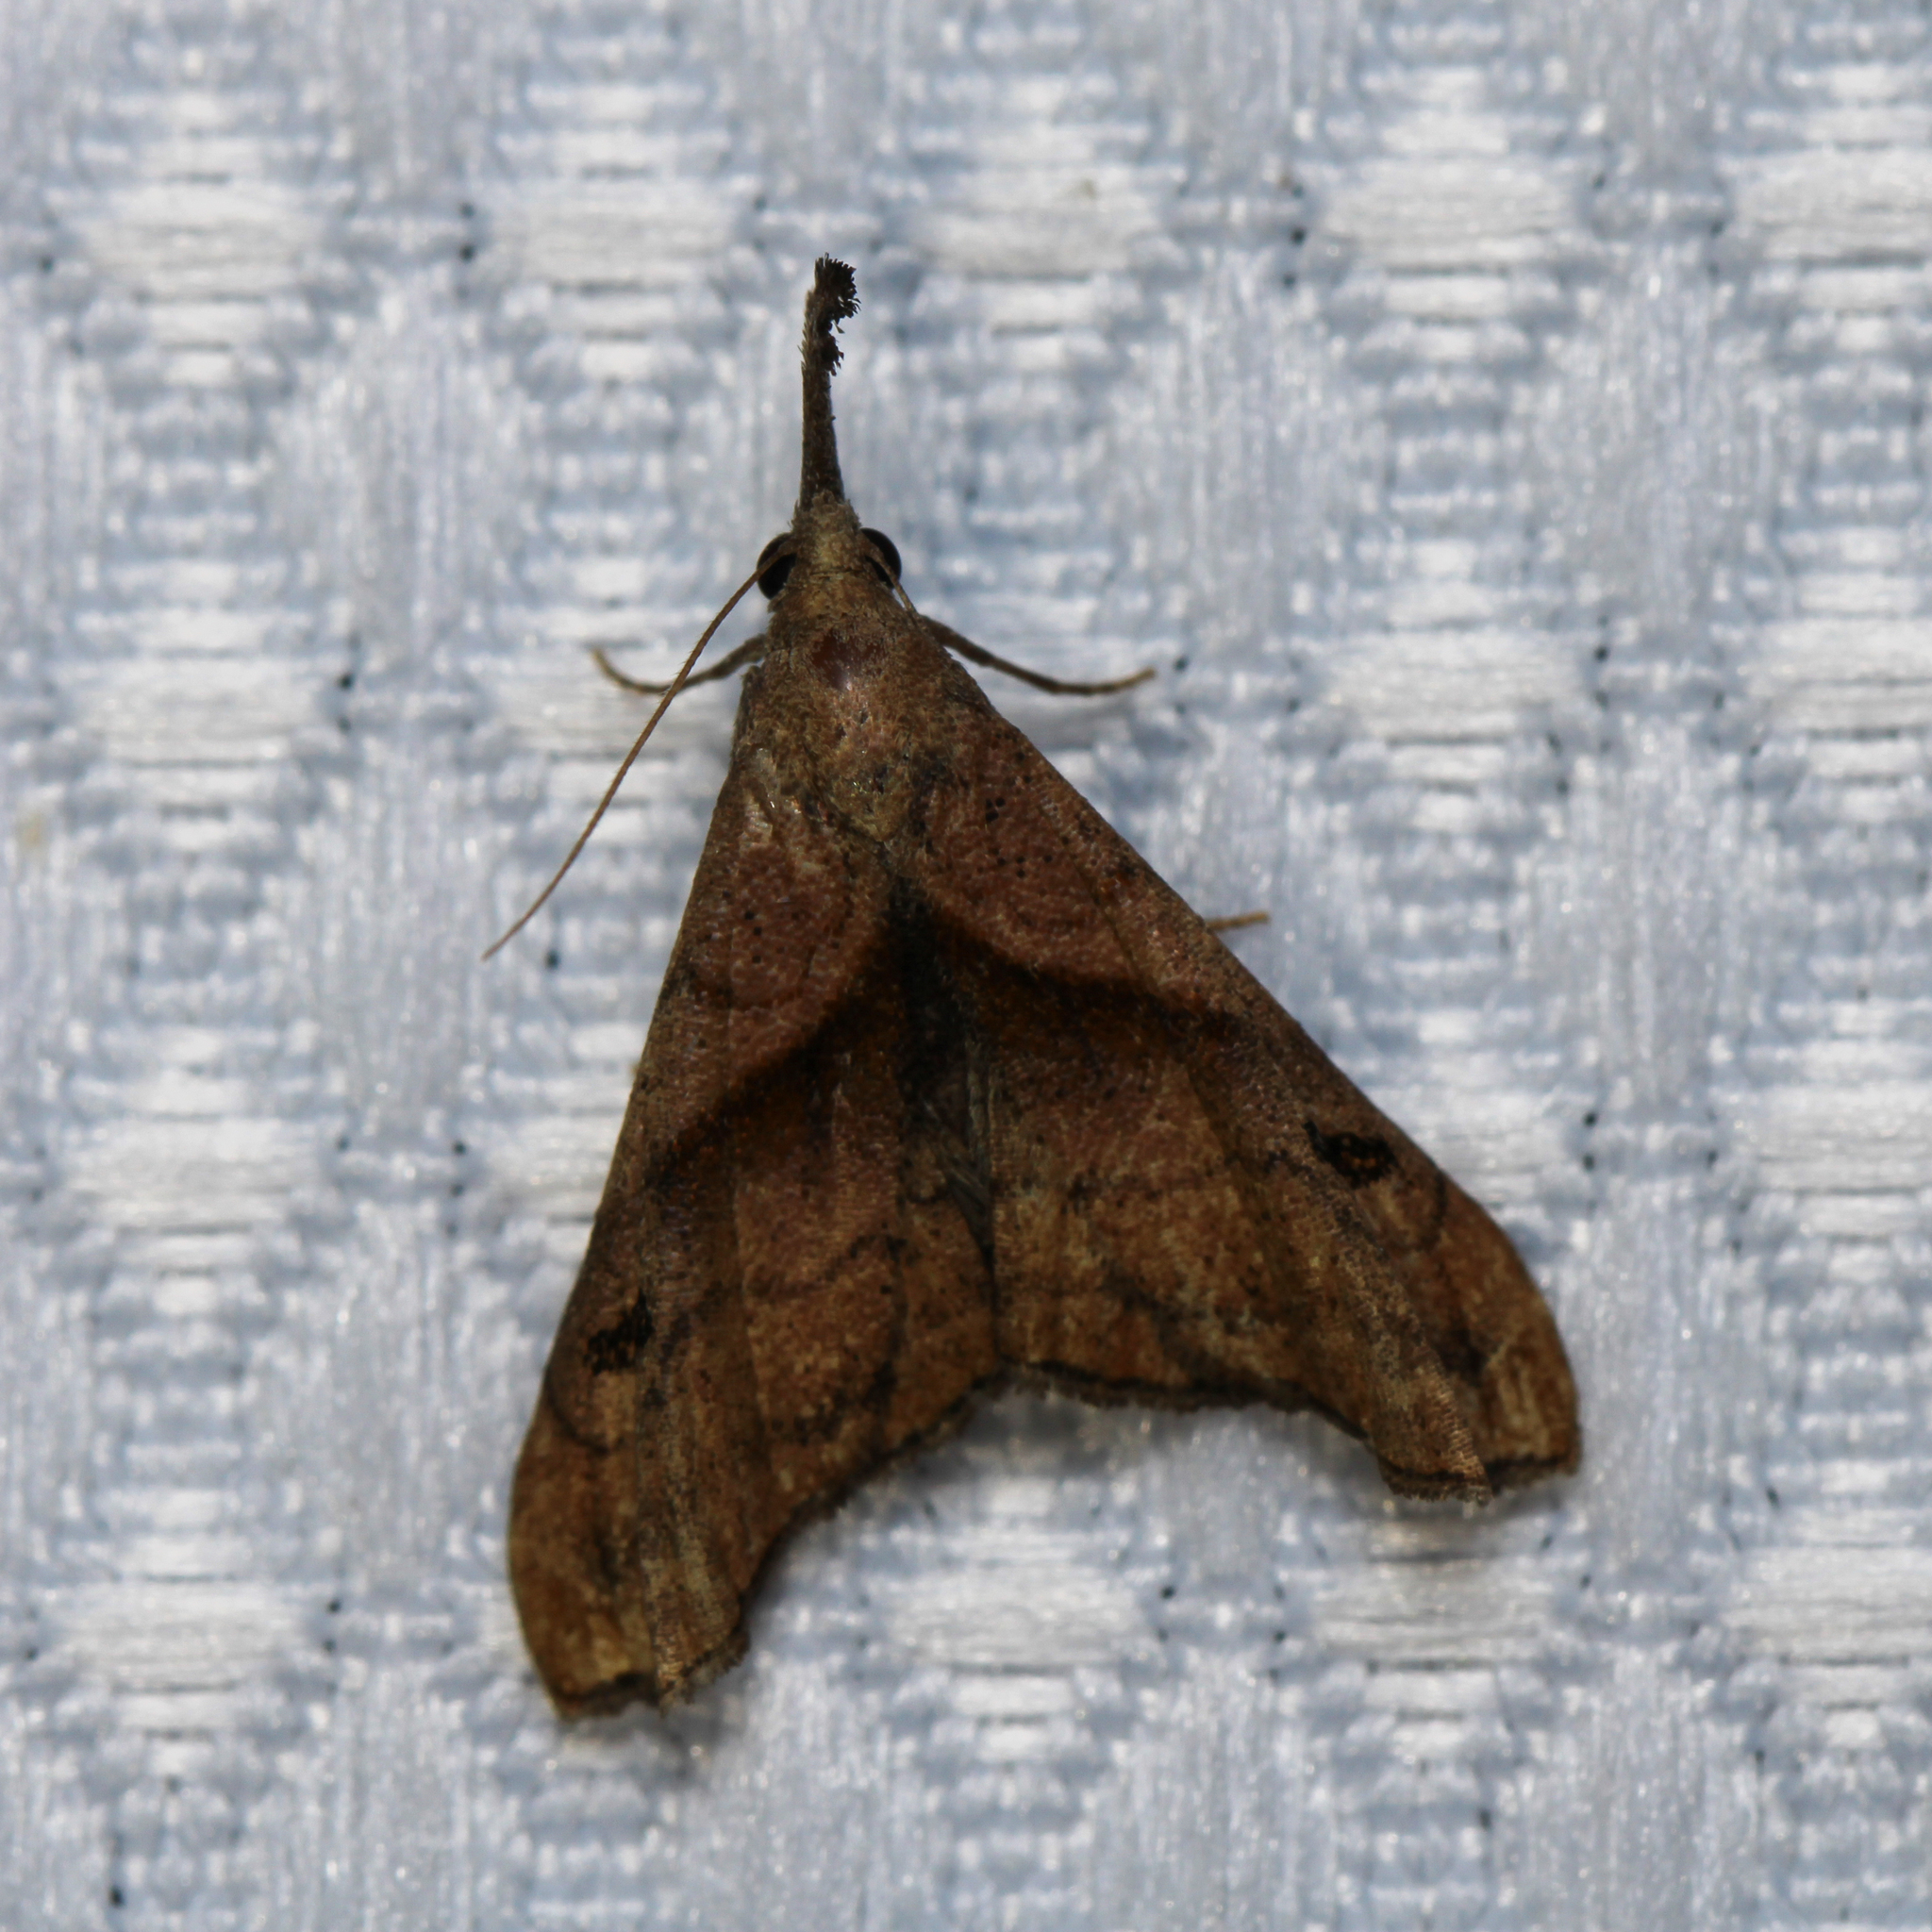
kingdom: Animalia
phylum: Arthropoda
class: Insecta
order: Lepidoptera
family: Erebidae
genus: Palthis
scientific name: Palthis angulalis
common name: Dark-spotted palthis moth
